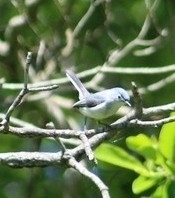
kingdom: Animalia
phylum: Chordata
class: Aves
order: Passeriformes
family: Polioptilidae
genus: Polioptila
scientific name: Polioptila caerulea
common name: Blue-gray gnatcatcher
